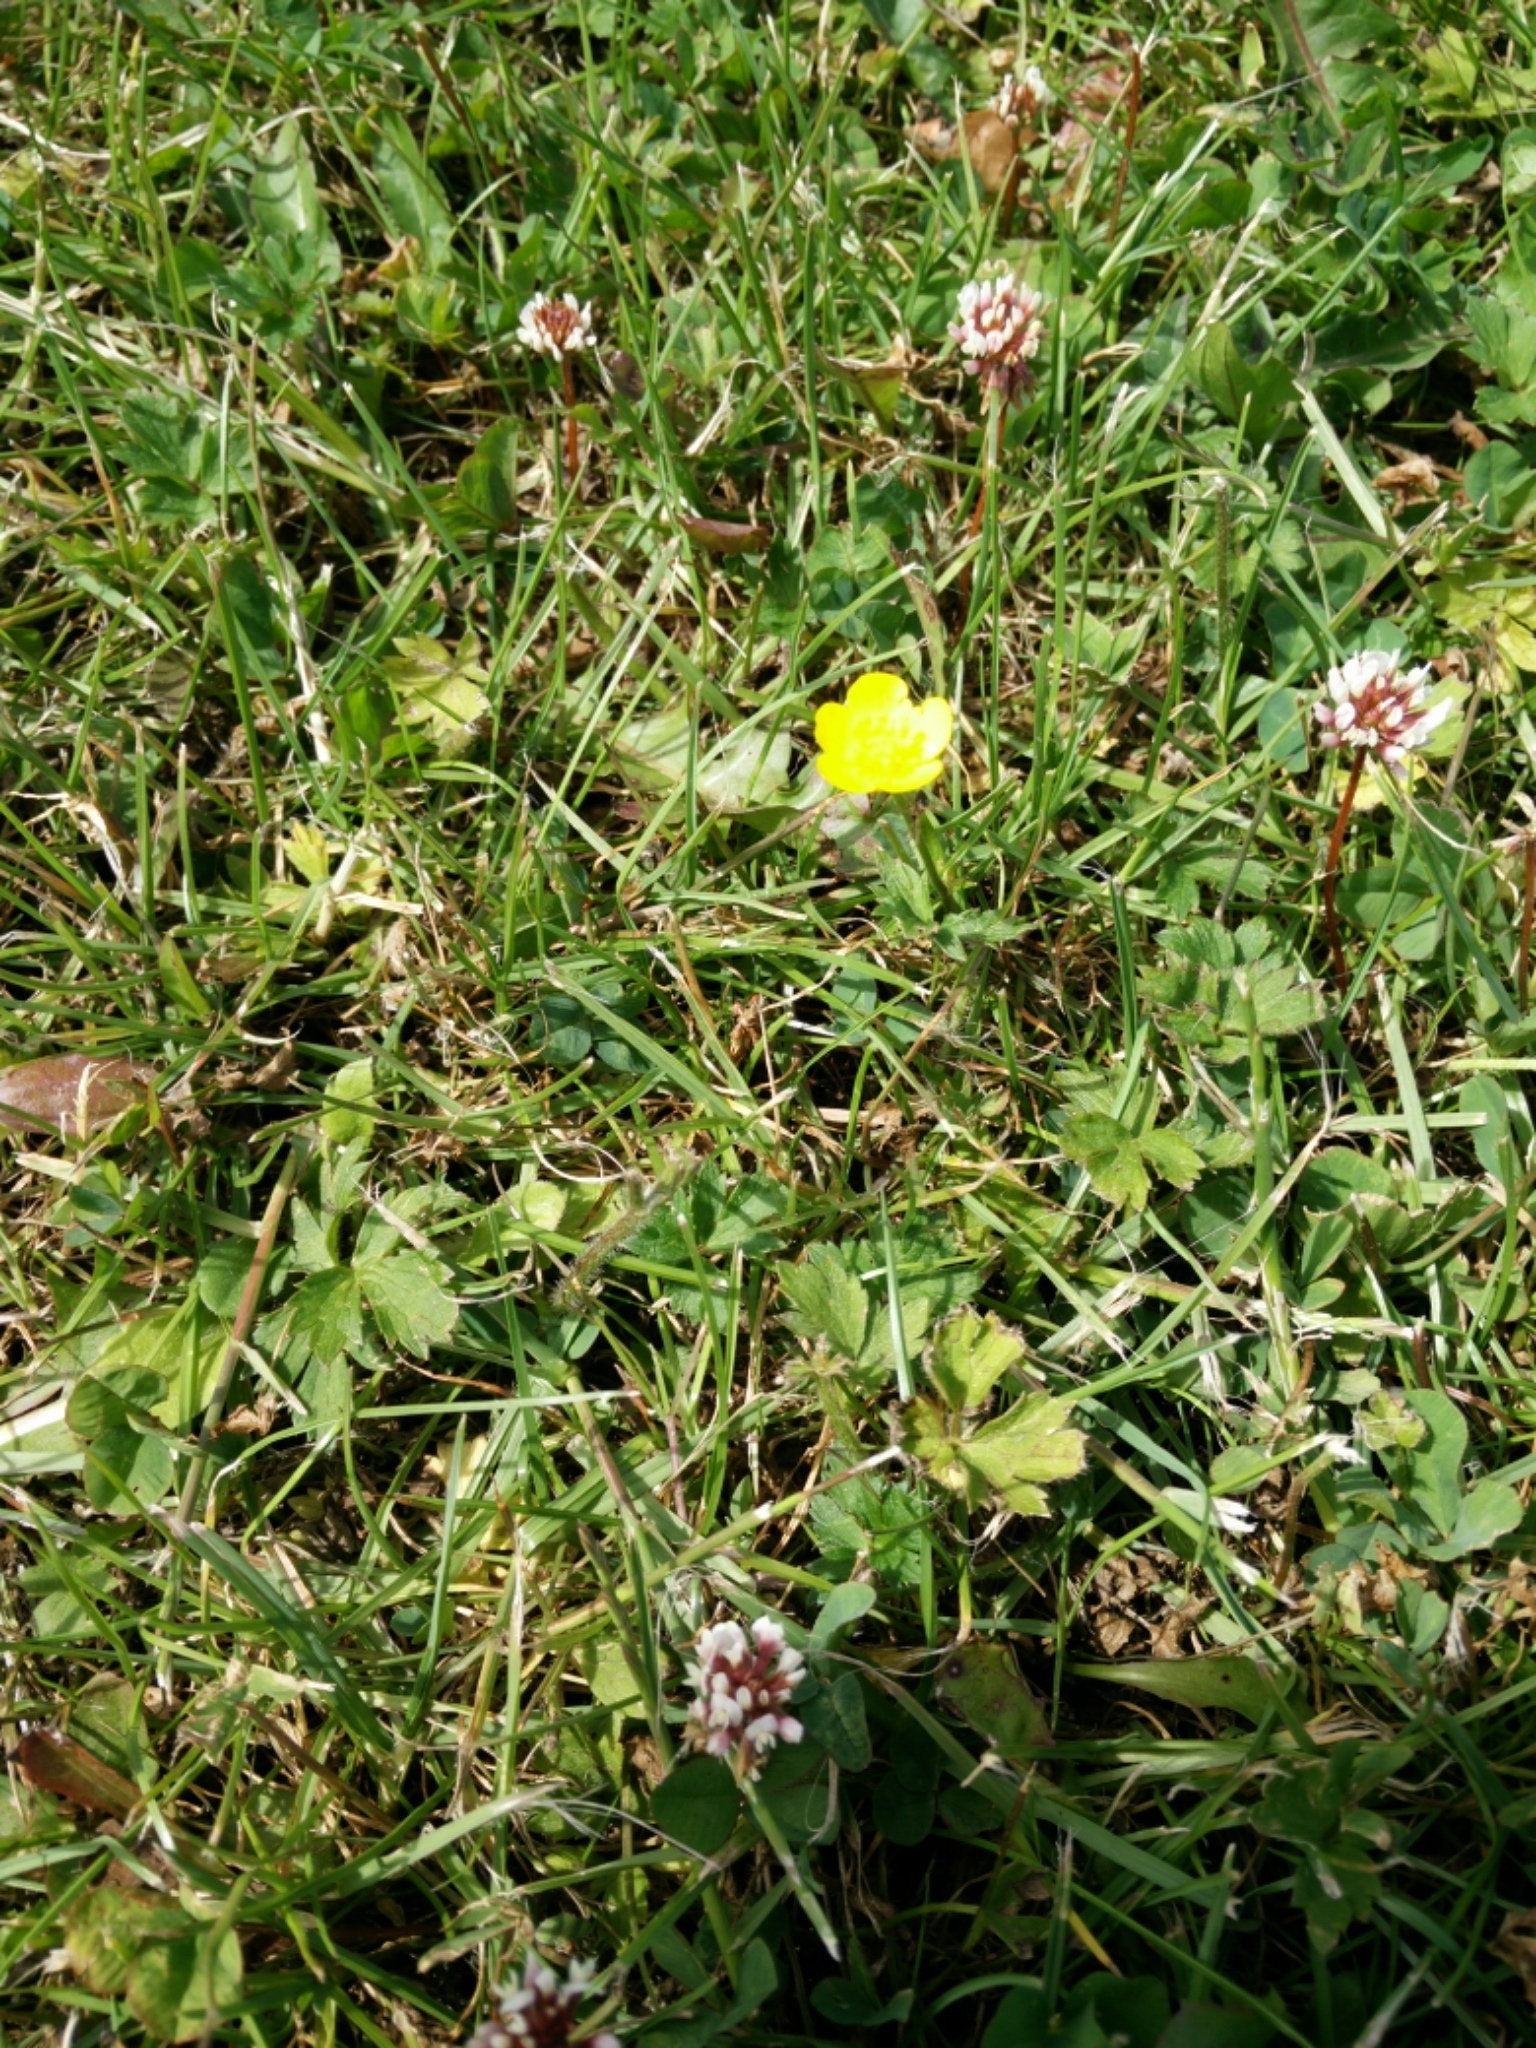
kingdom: Plantae
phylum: Tracheophyta
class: Magnoliopsida
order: Ranunculales
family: Ranunculaceae
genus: Ranunculus
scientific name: Ranunculus repens
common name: Creeping buttercup
